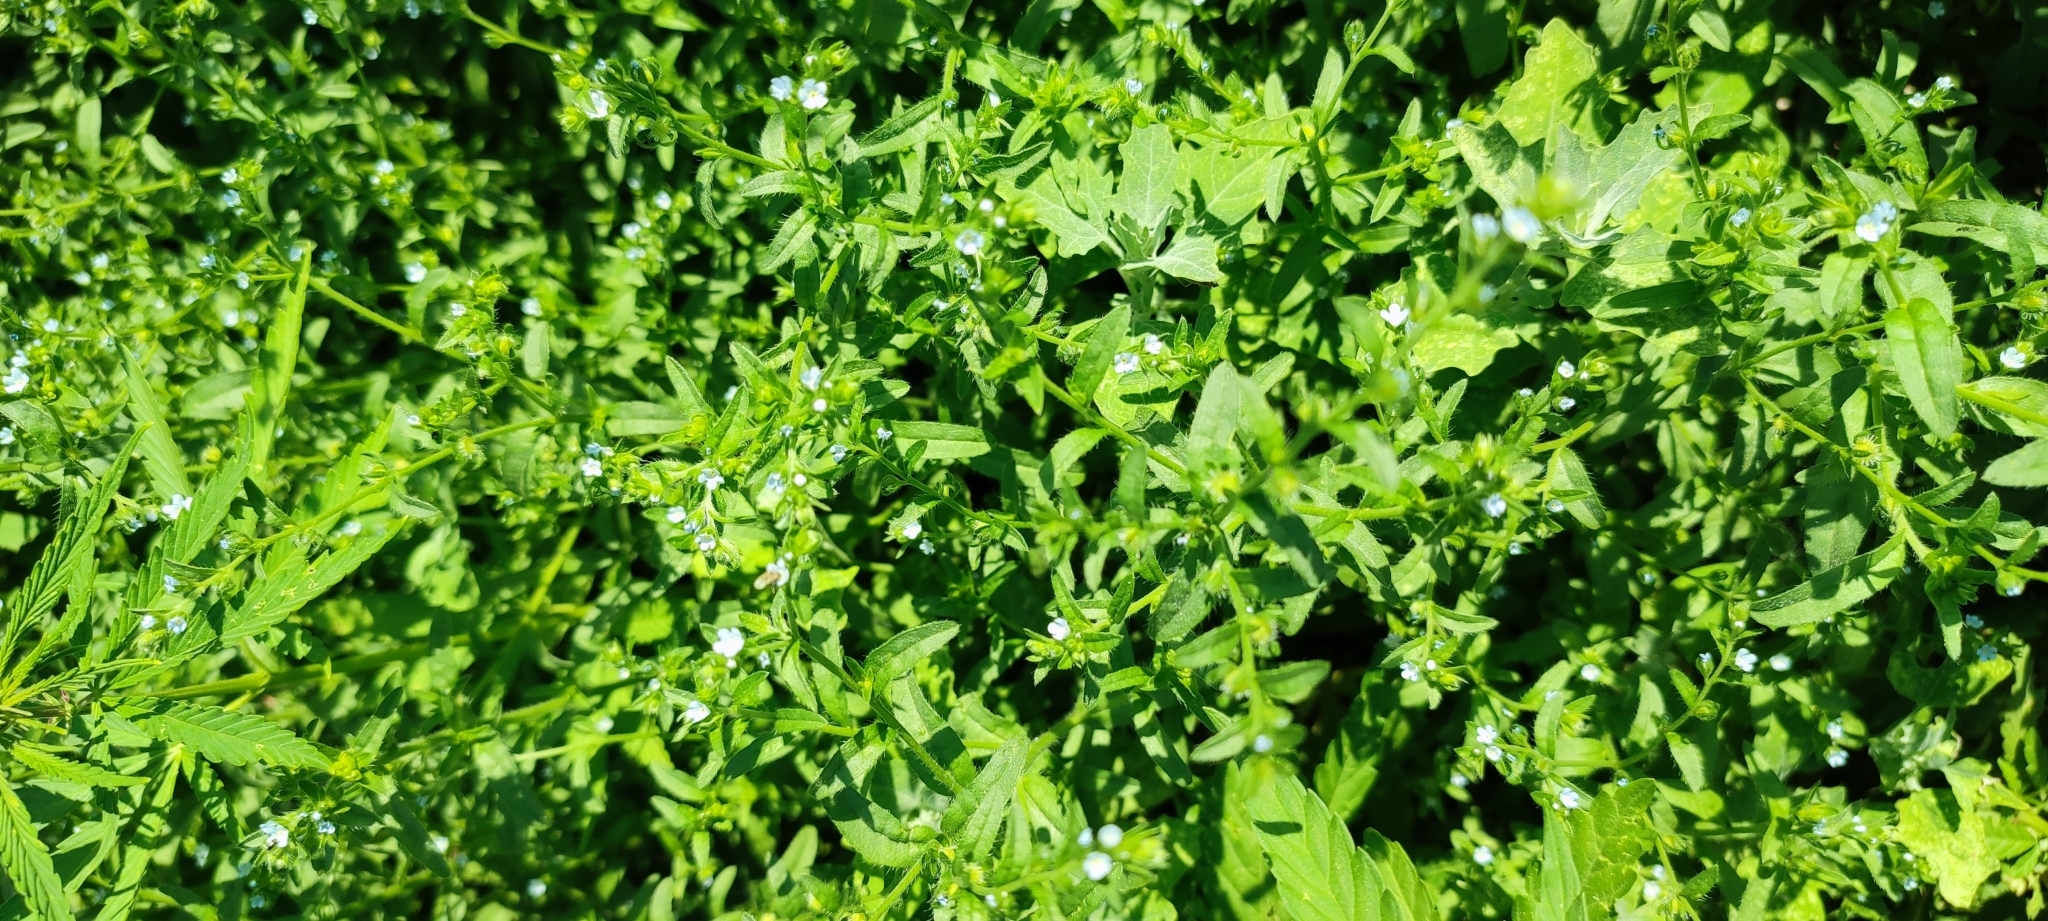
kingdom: Plantae
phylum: Tracheophyta
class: Magnoliopsida
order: Boraginales
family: Boraginaceae
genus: Lappula
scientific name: Lappula squarrosa
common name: European stickseed
